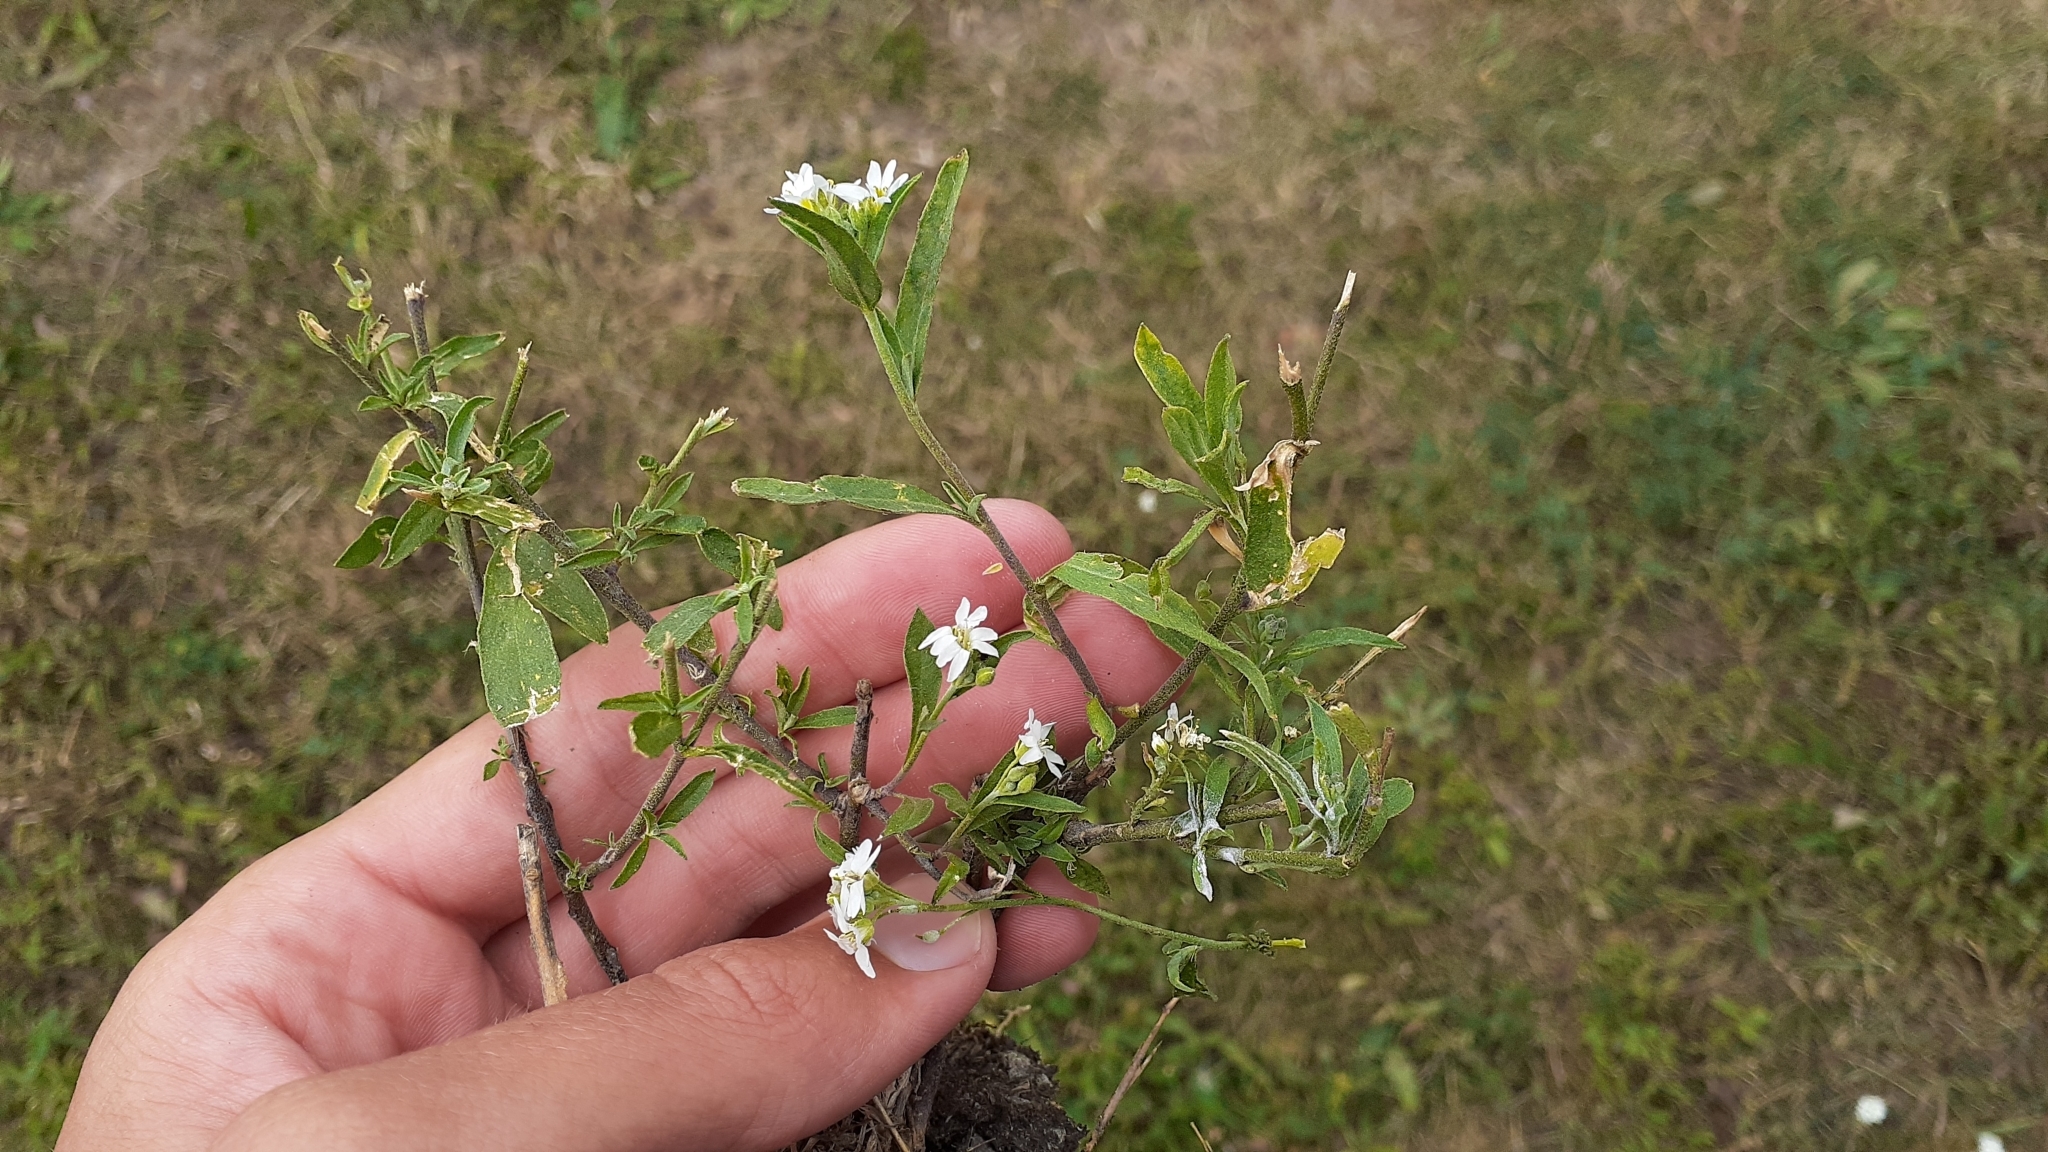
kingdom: Plantae
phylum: Tracheophyta
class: Magnoliopsida
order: Brassicales
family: Brassicaceae
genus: Berteroa
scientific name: Berteroa incana
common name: Hoary alison
